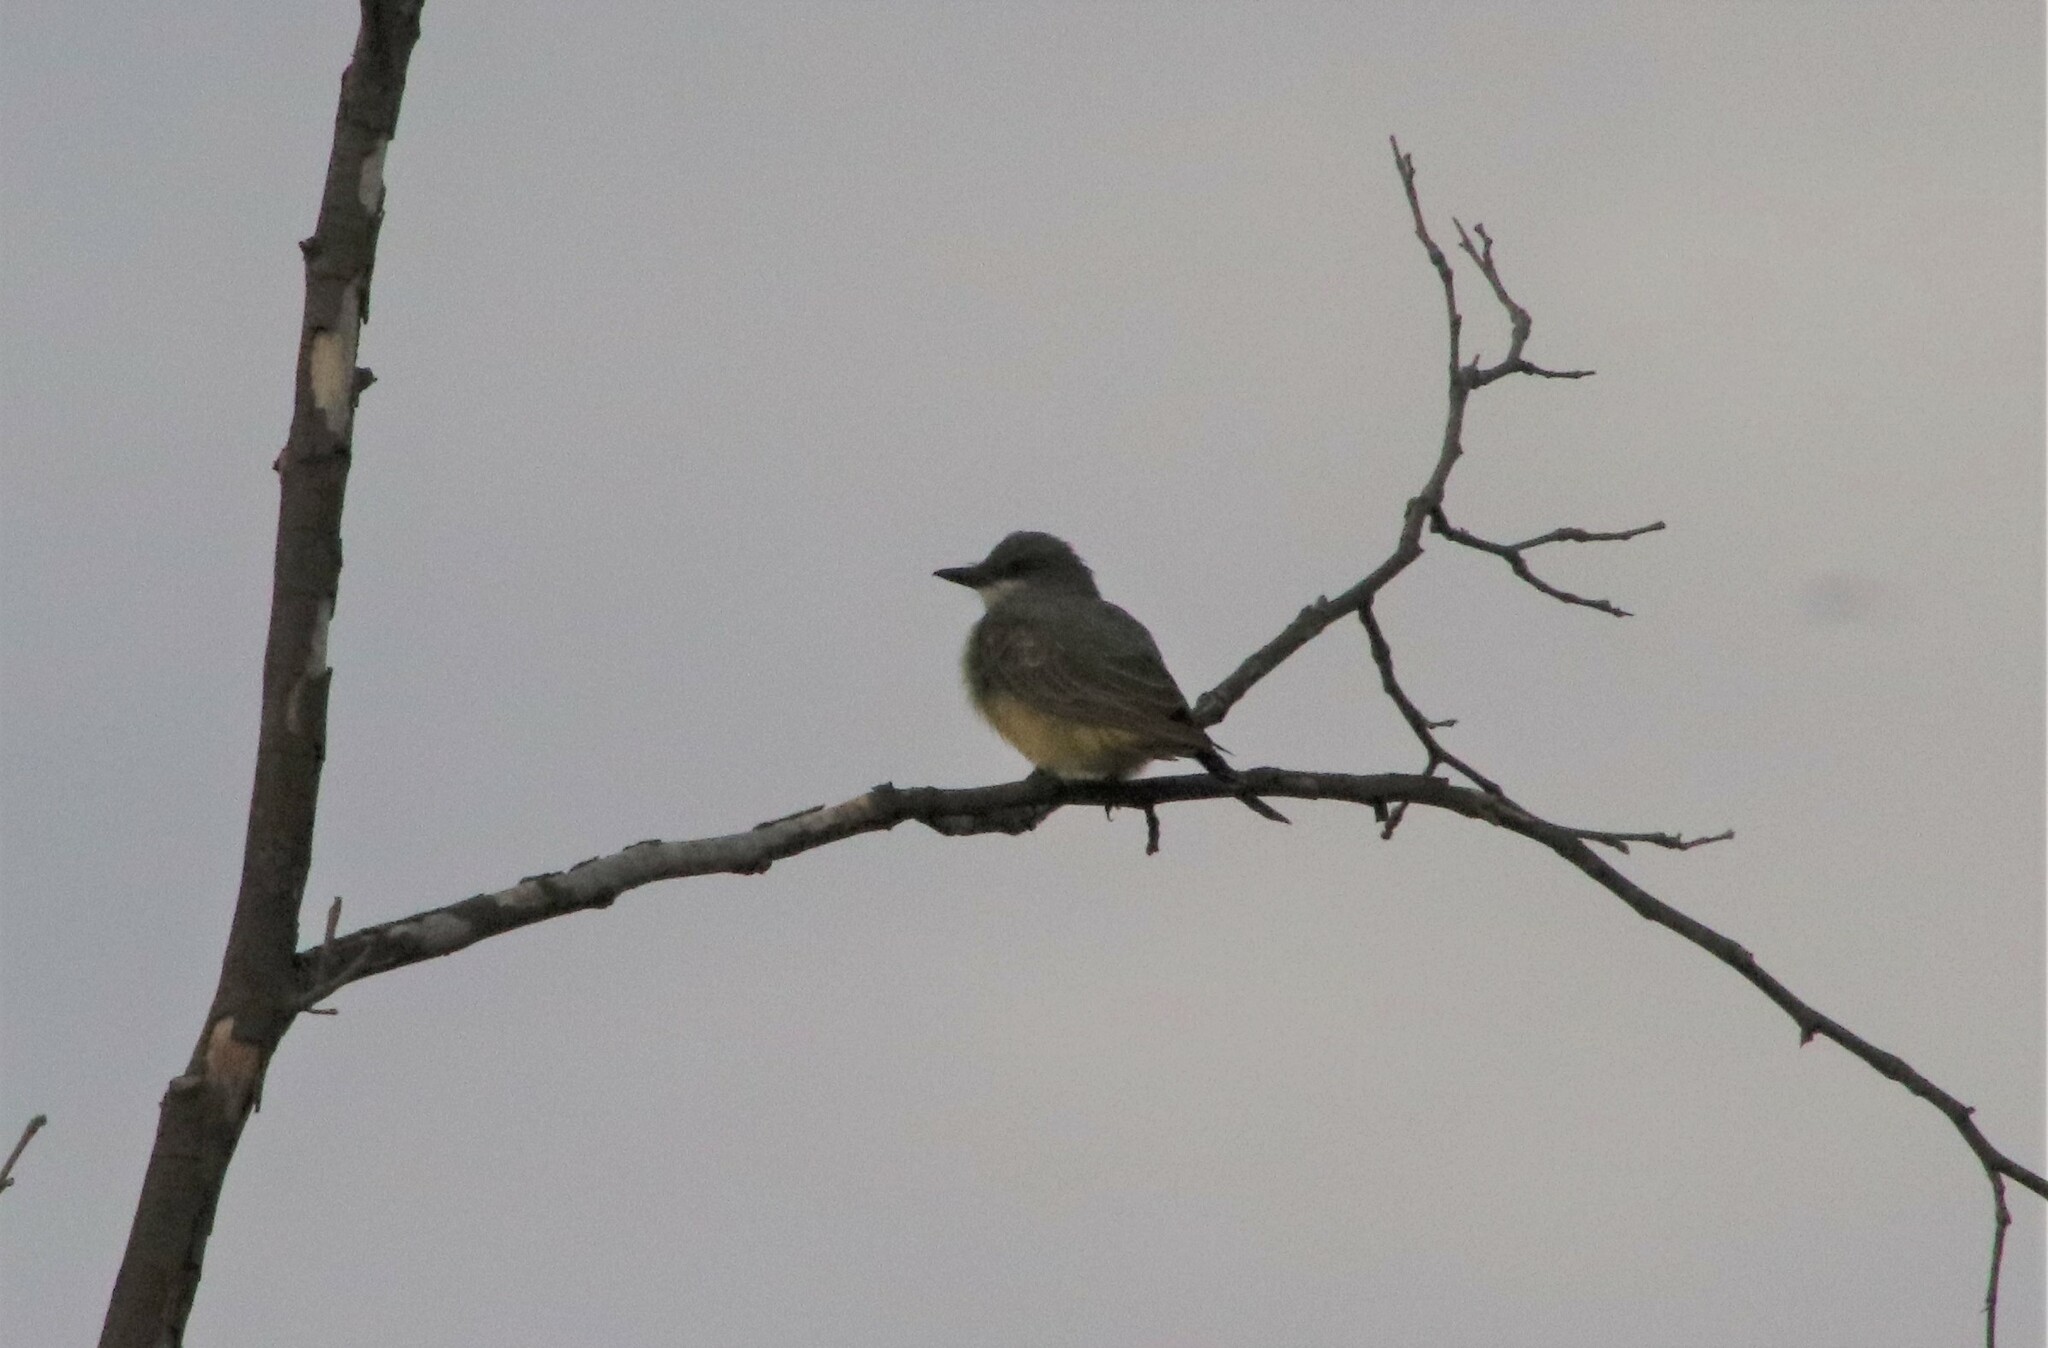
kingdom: Animalia
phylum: Chordata
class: Aves
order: Passeriformes
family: Tyrannidae
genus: Tyrannus
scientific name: Tyrannus vociferans
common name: Cassin's kingbird
